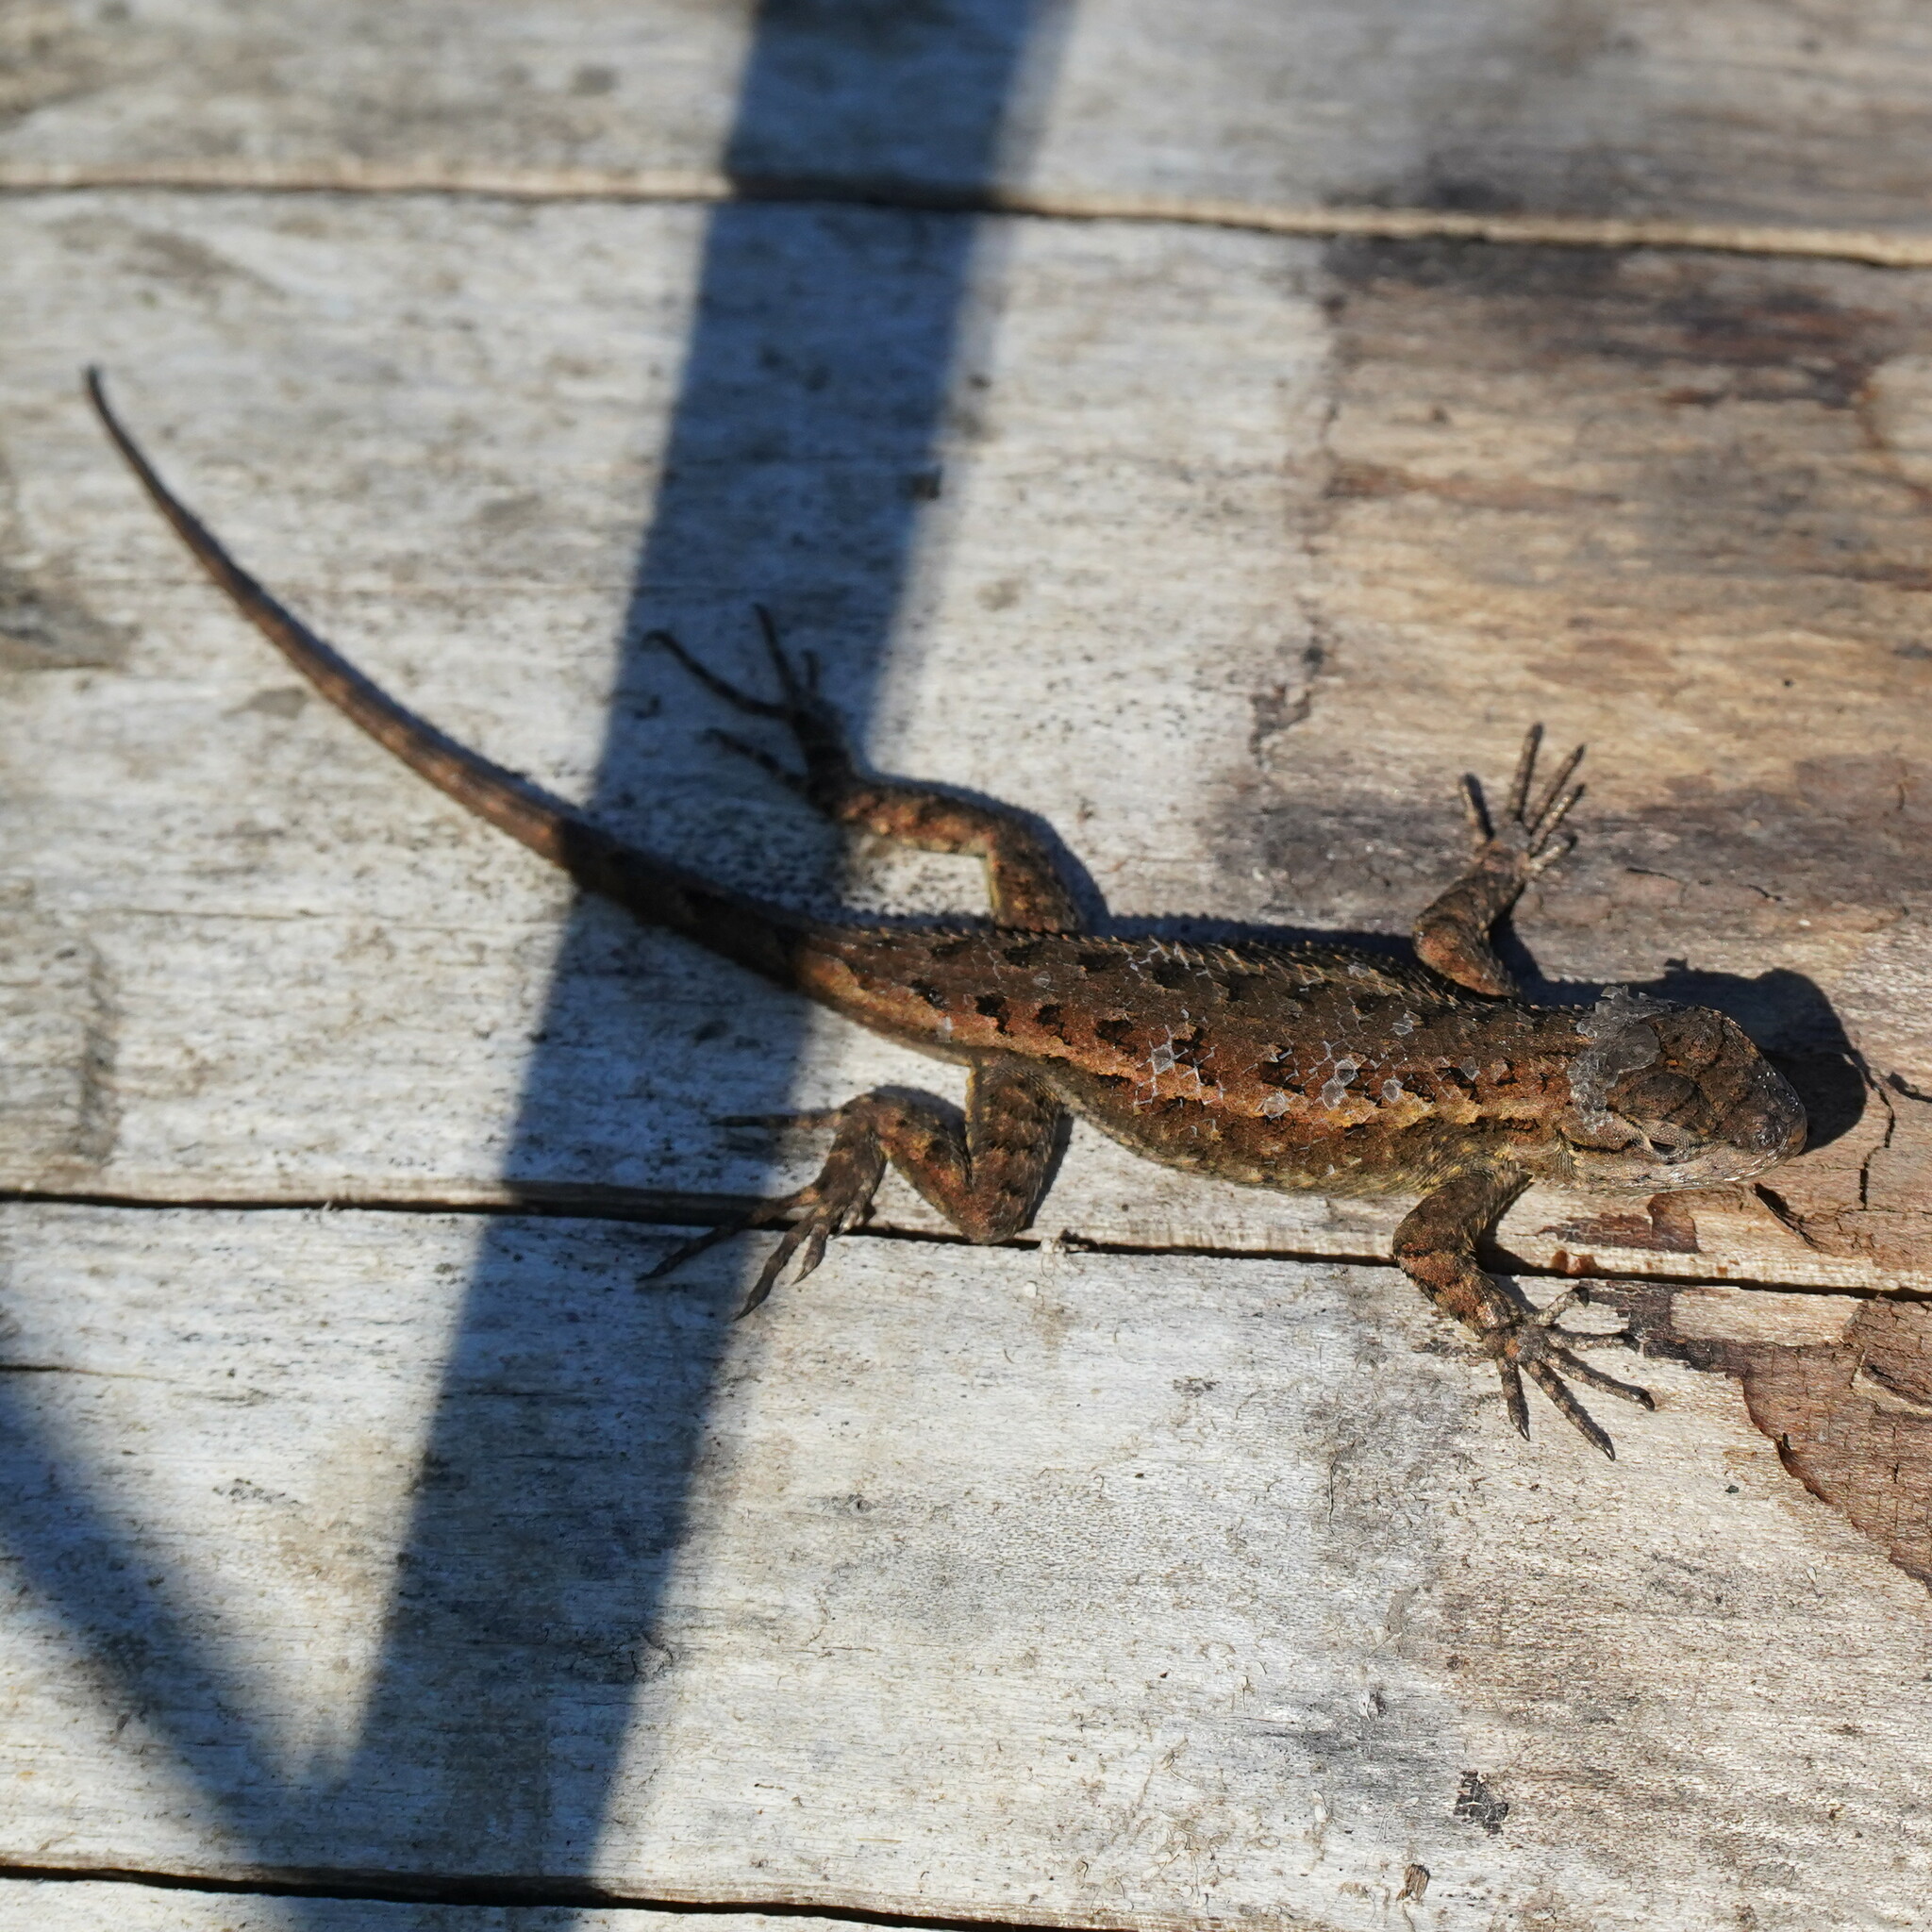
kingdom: Animalia
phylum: Chordata
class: Squamata
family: Phrynosomatidae
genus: Sceloporus
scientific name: Sceloporus occidentalis
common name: Western fence lizard
